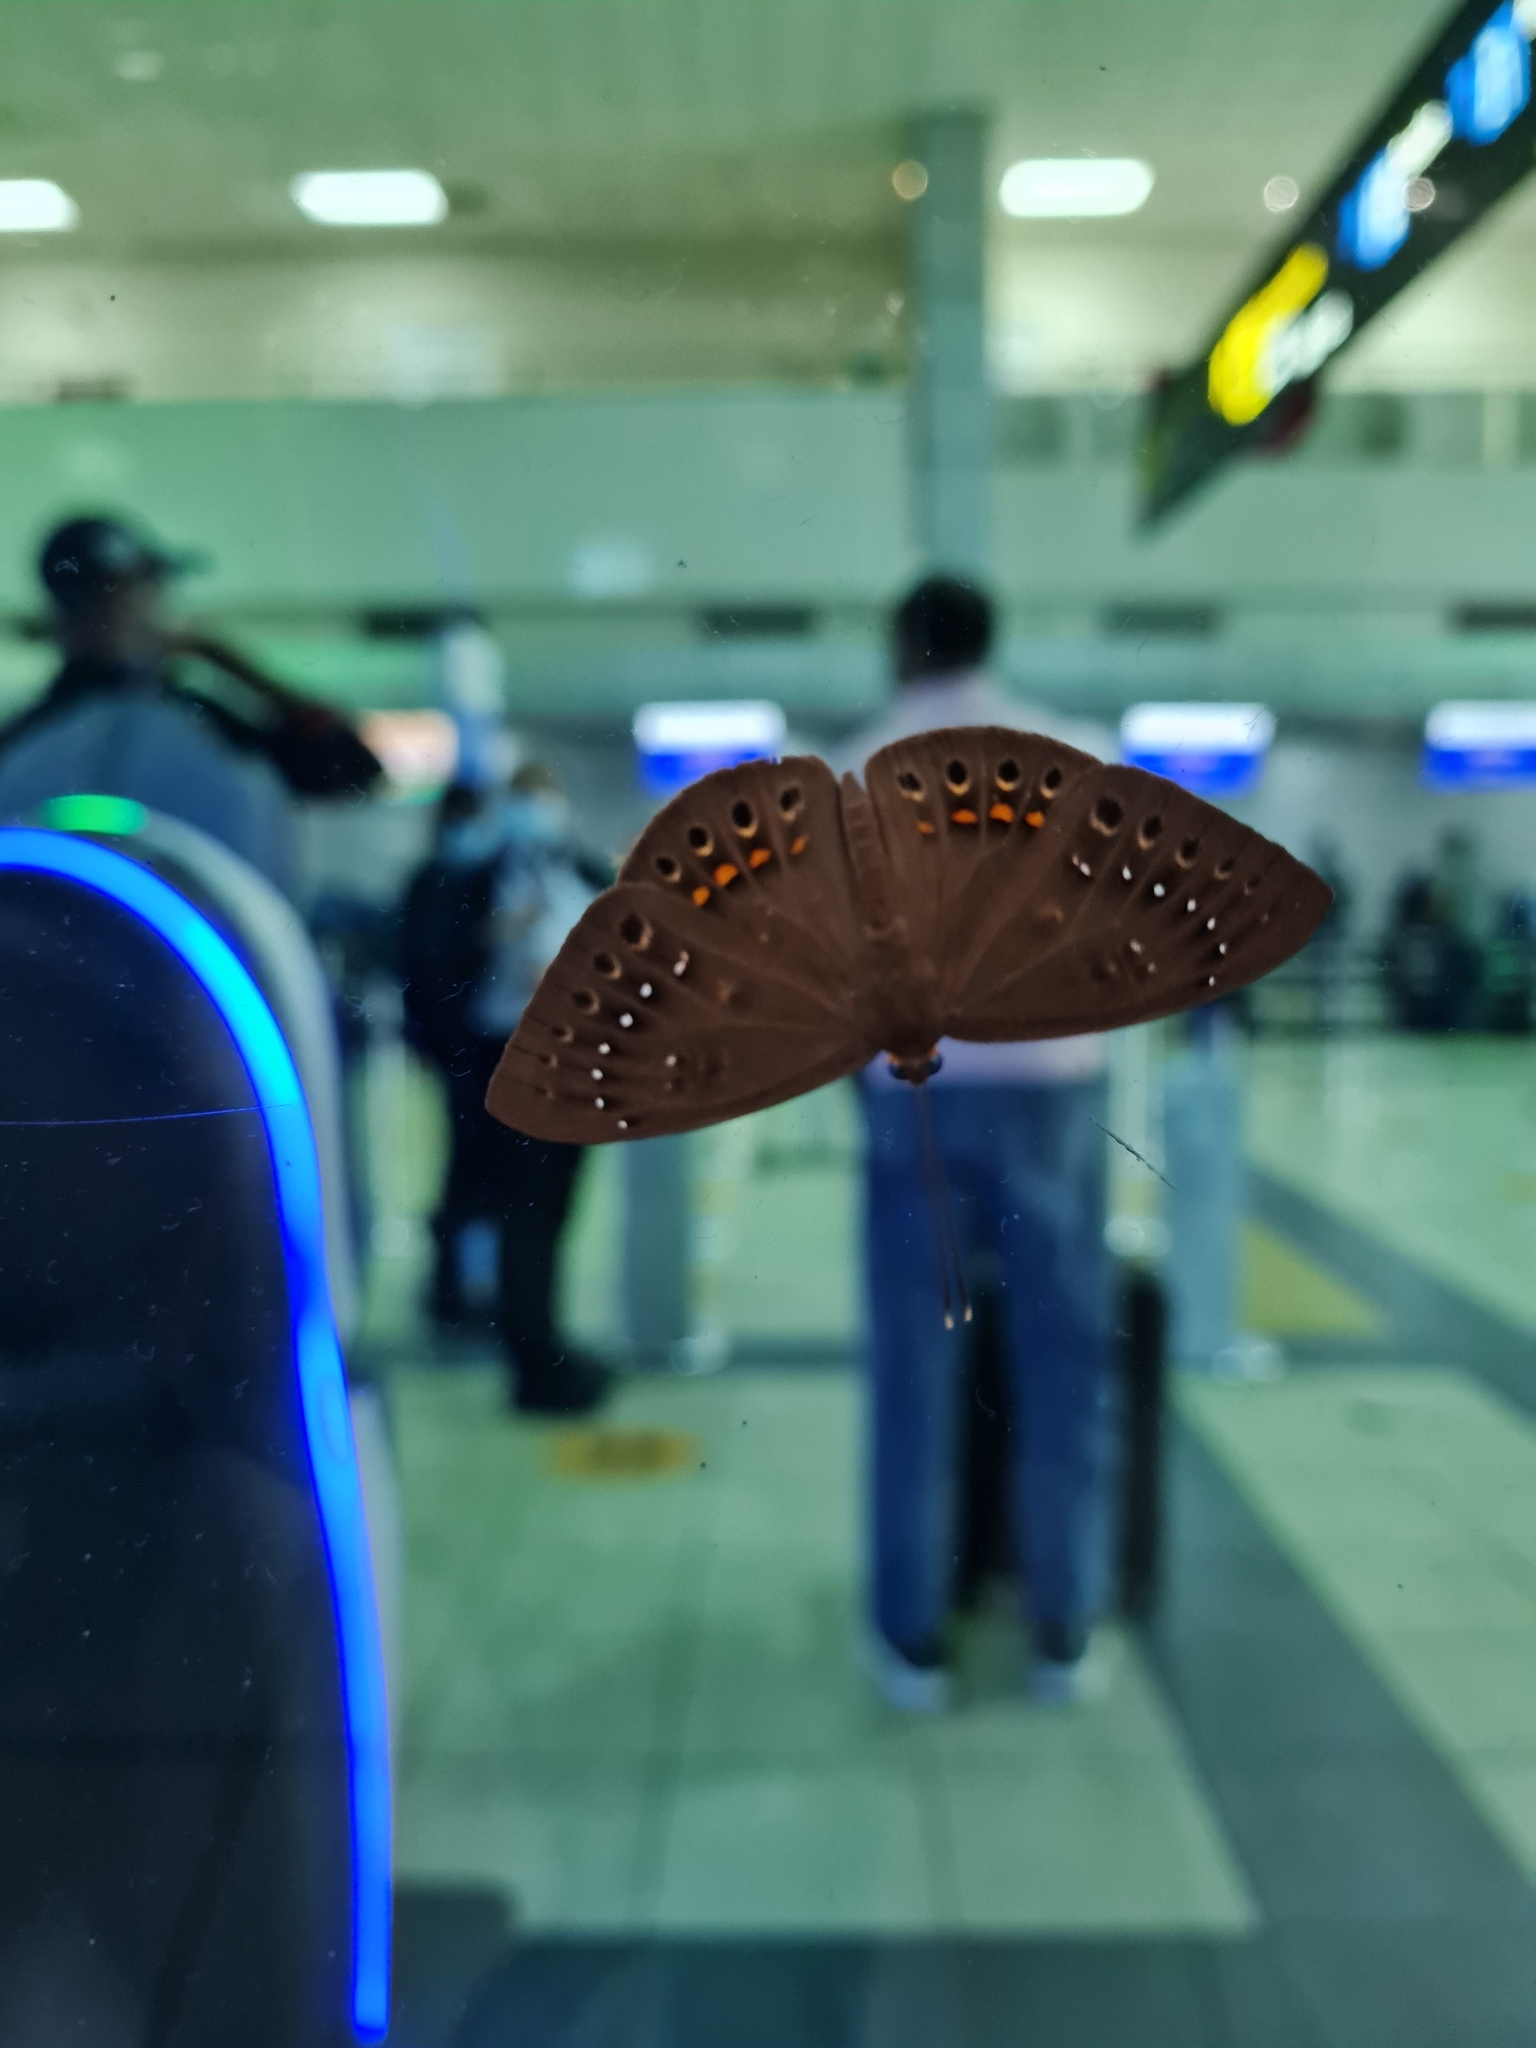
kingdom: Animalia
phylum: Cnidaria
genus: Eurybia
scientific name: Eurybia elvina
